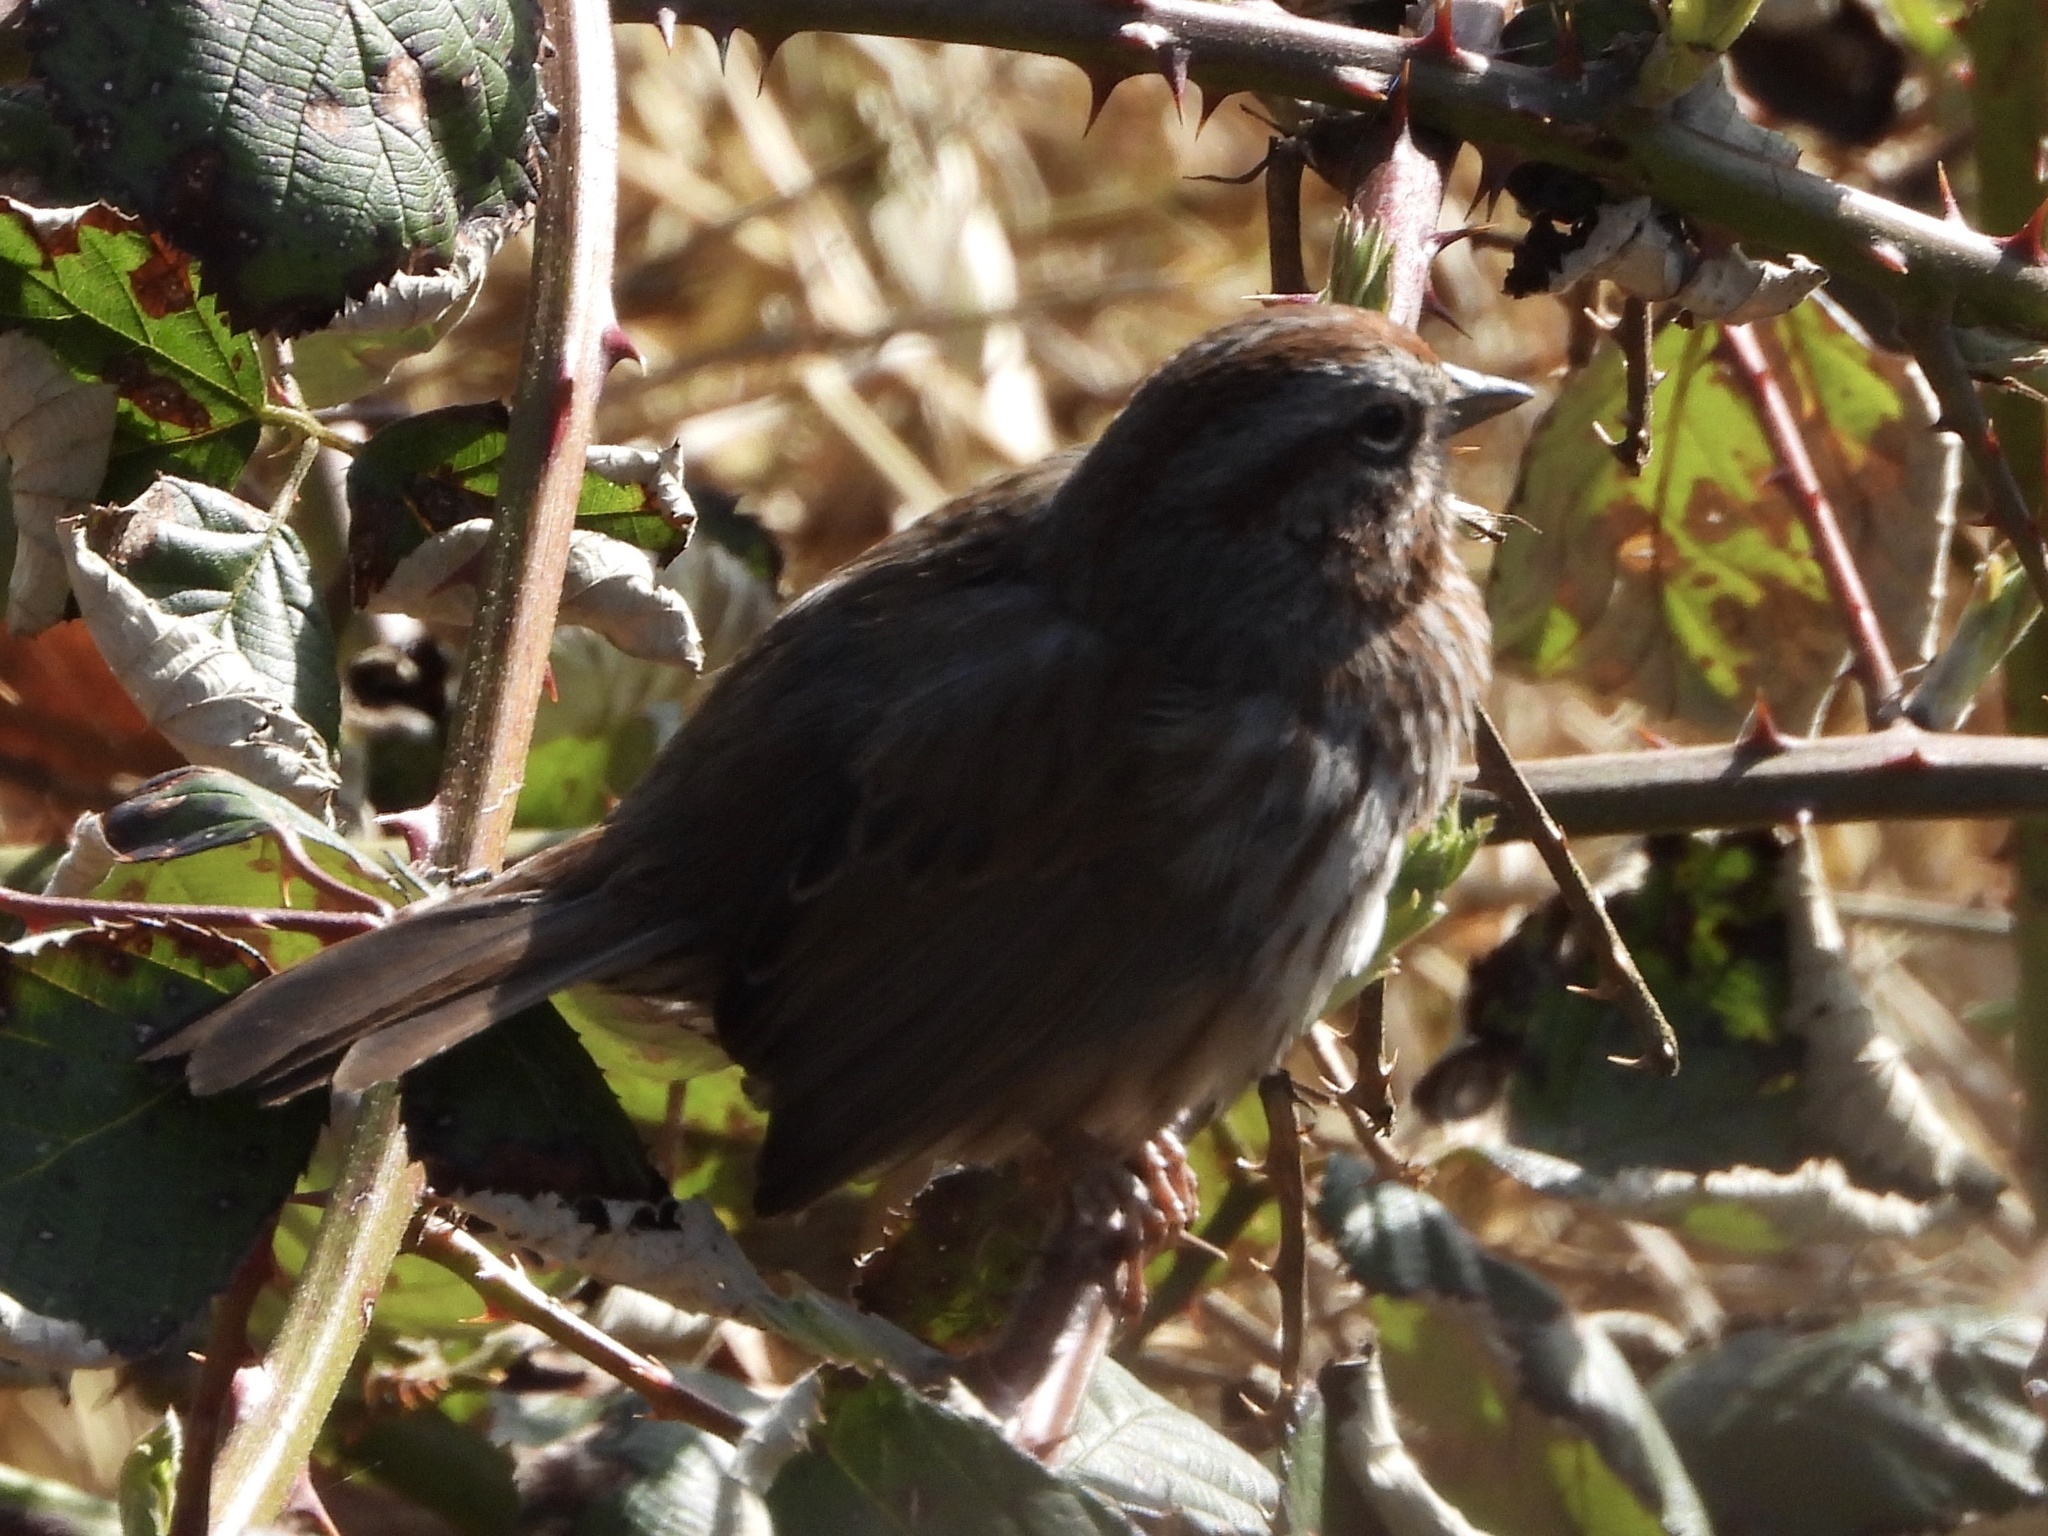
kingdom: Animalia
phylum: Chordata
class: Aves
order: Passeriformes
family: Passerellidae
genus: Melospiza
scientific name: Melospiza melodia
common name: Song sparrow
